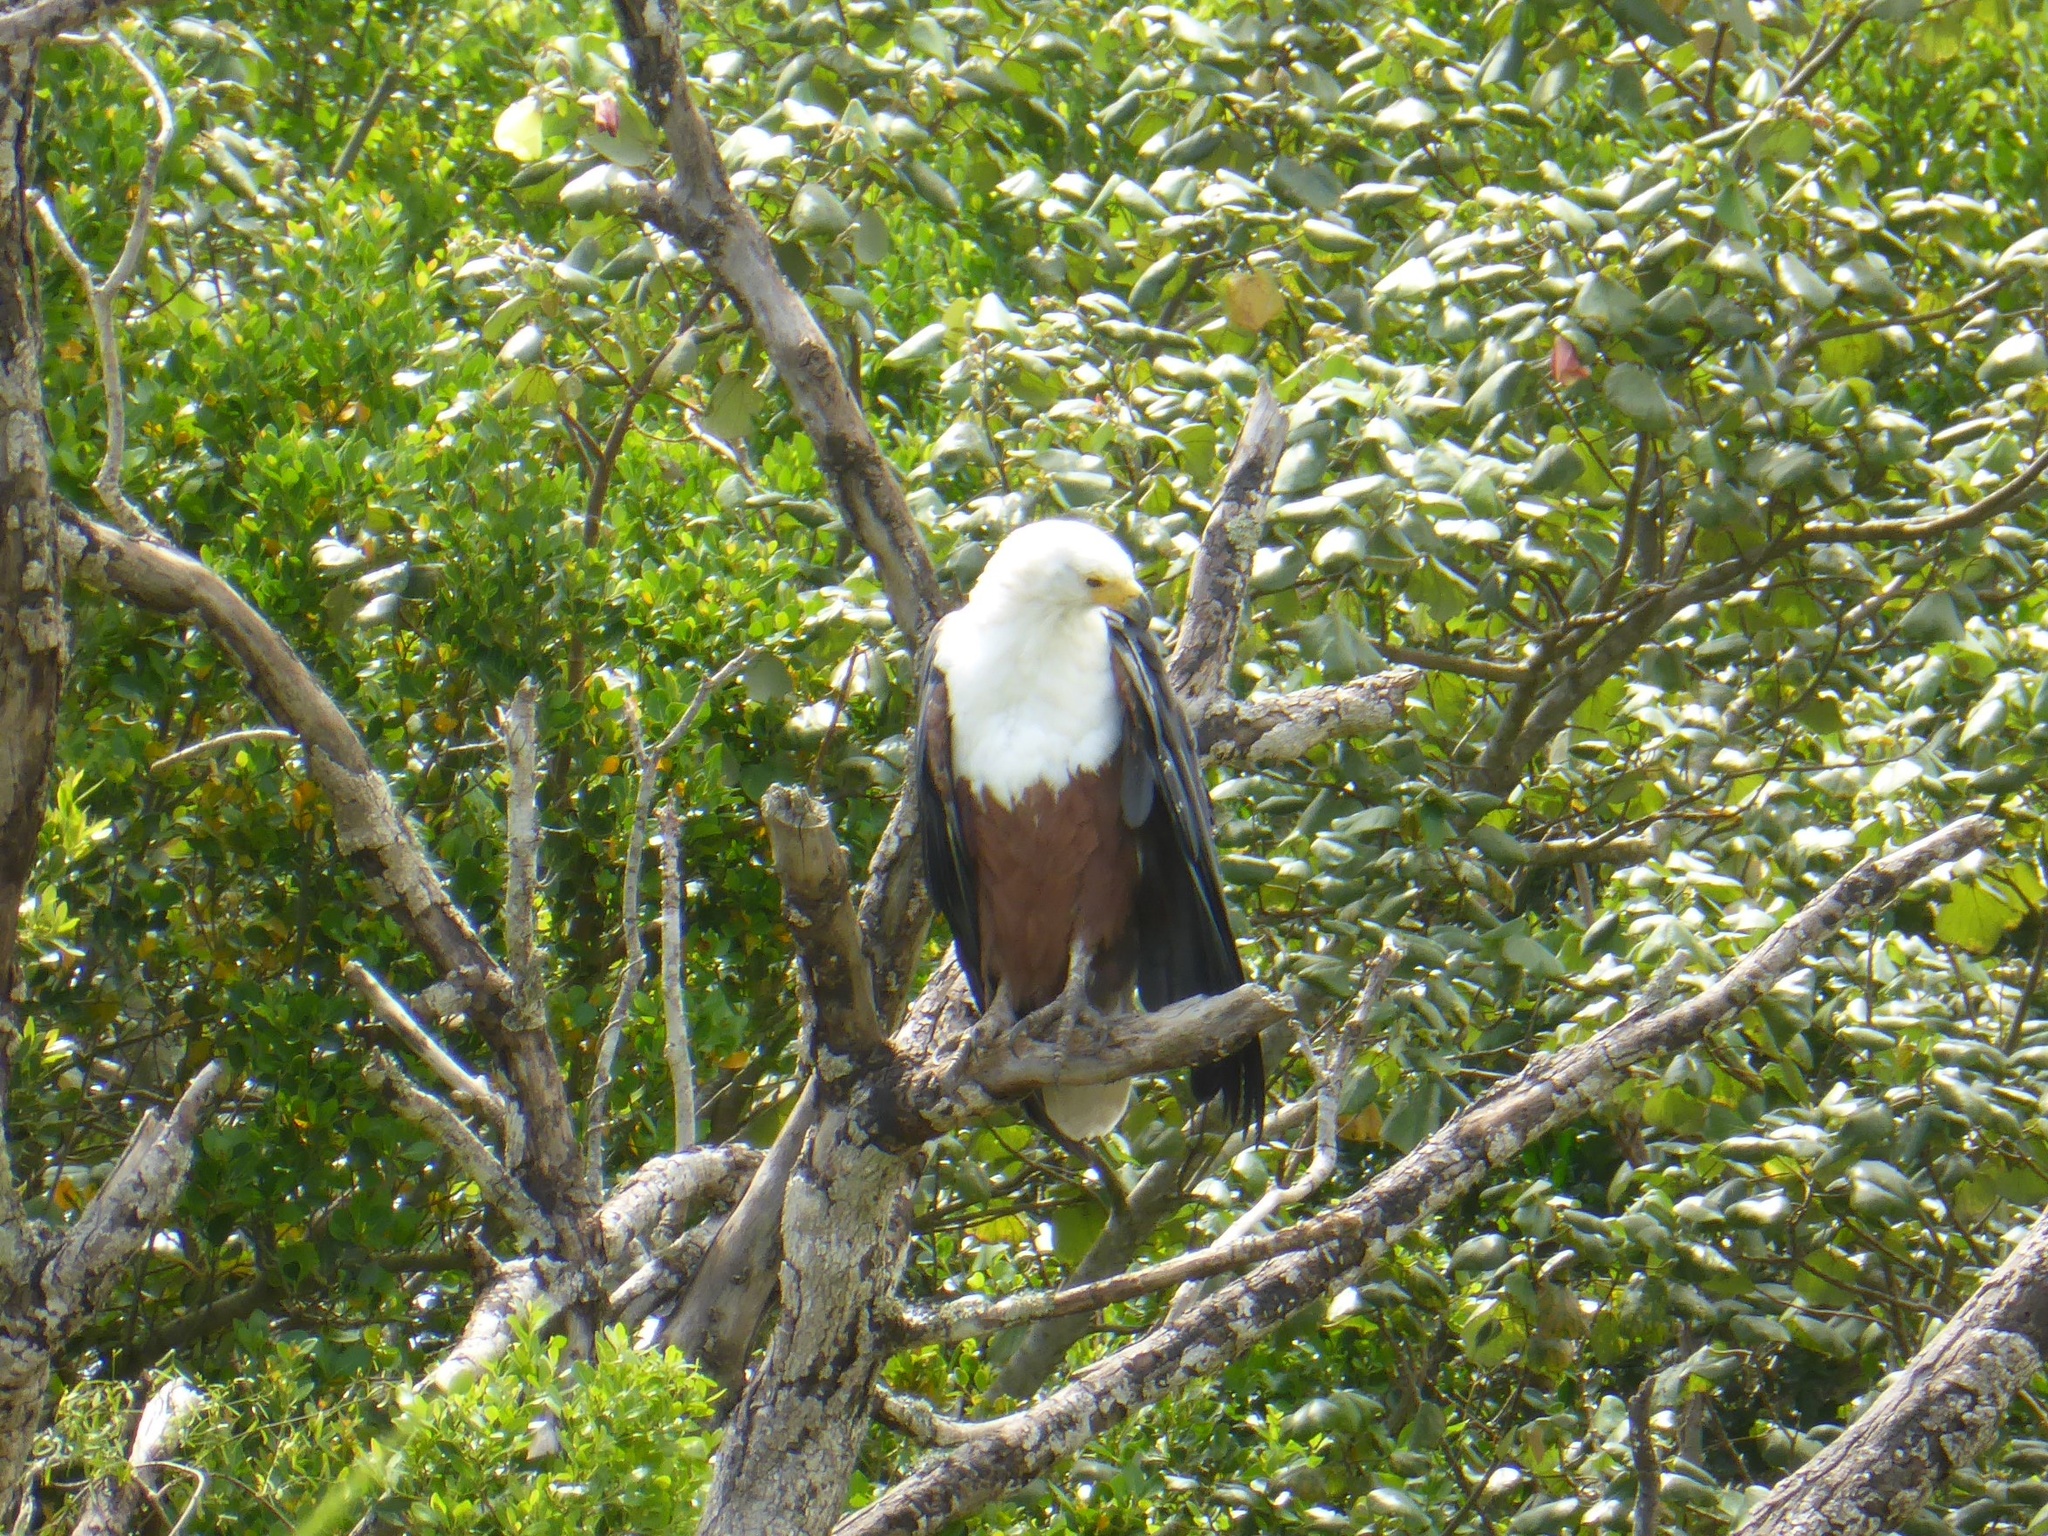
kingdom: Animalia
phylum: Chordata
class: Aves
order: Accipitriformes
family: Accipitridae
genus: Haliaeetus
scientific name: Haliaeetus vocifer
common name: African fish eagle
